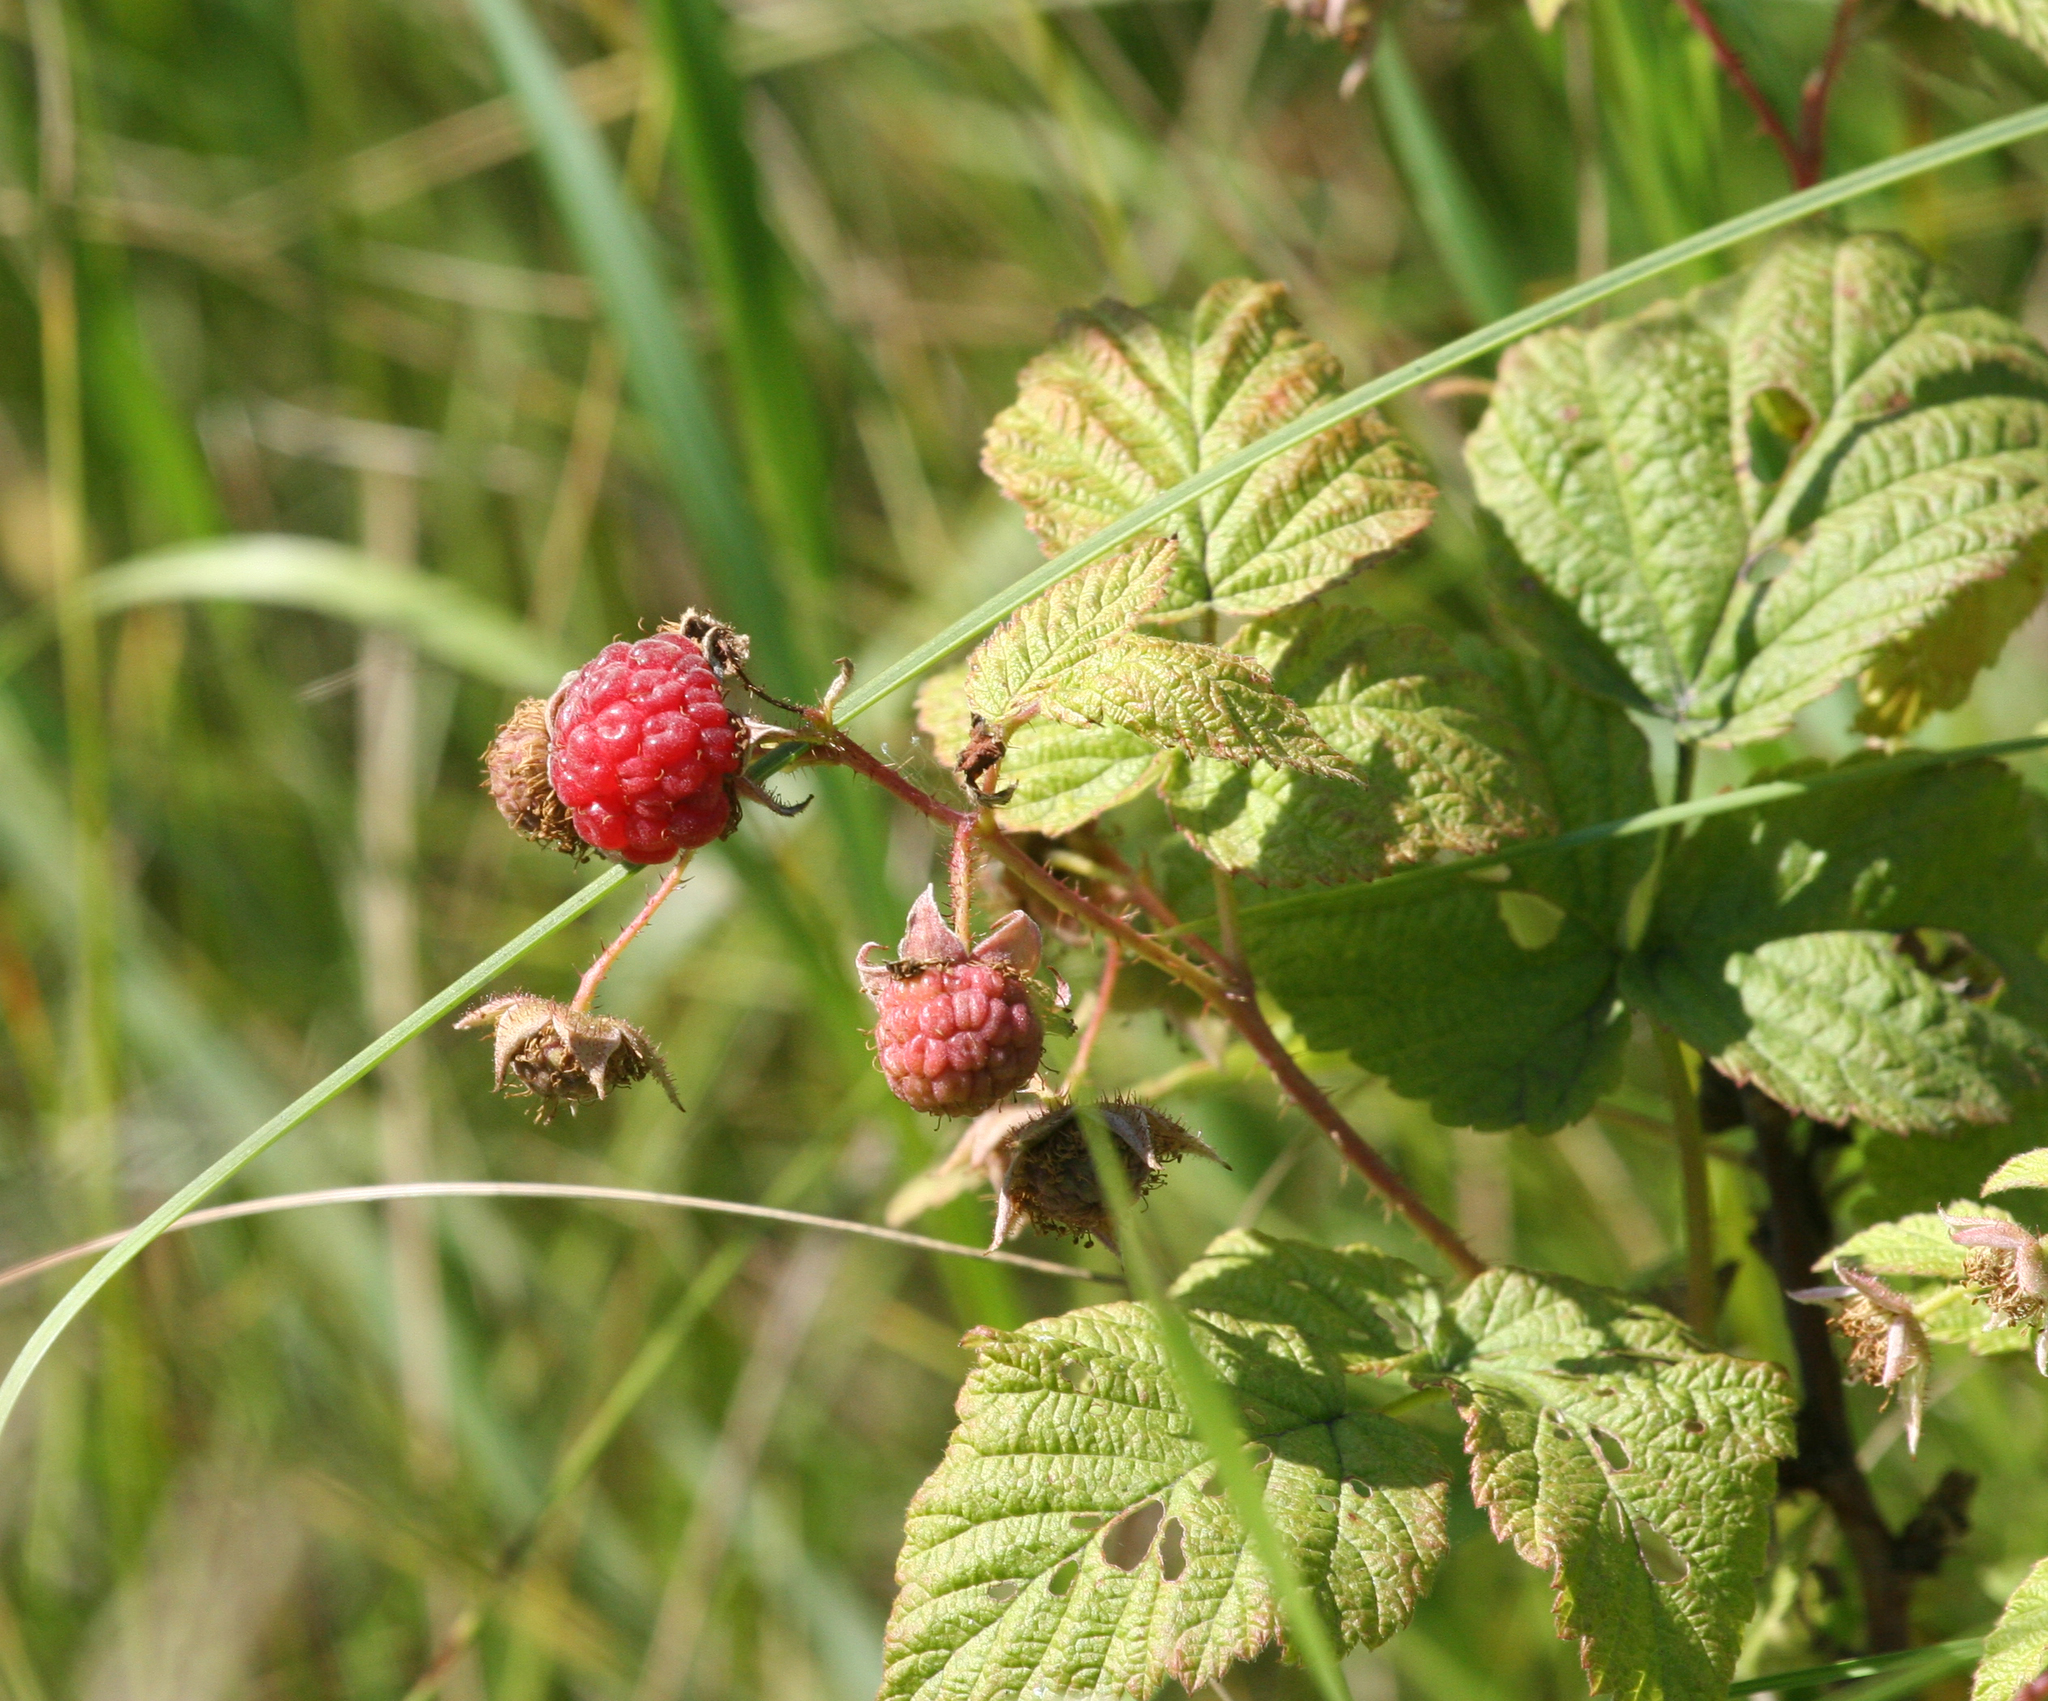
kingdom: Plantae
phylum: Tracheophyta
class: Magnoliopsida
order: Rosales
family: Rosaceae
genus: Rubus
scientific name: Rubus idaeus
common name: Raspberry
